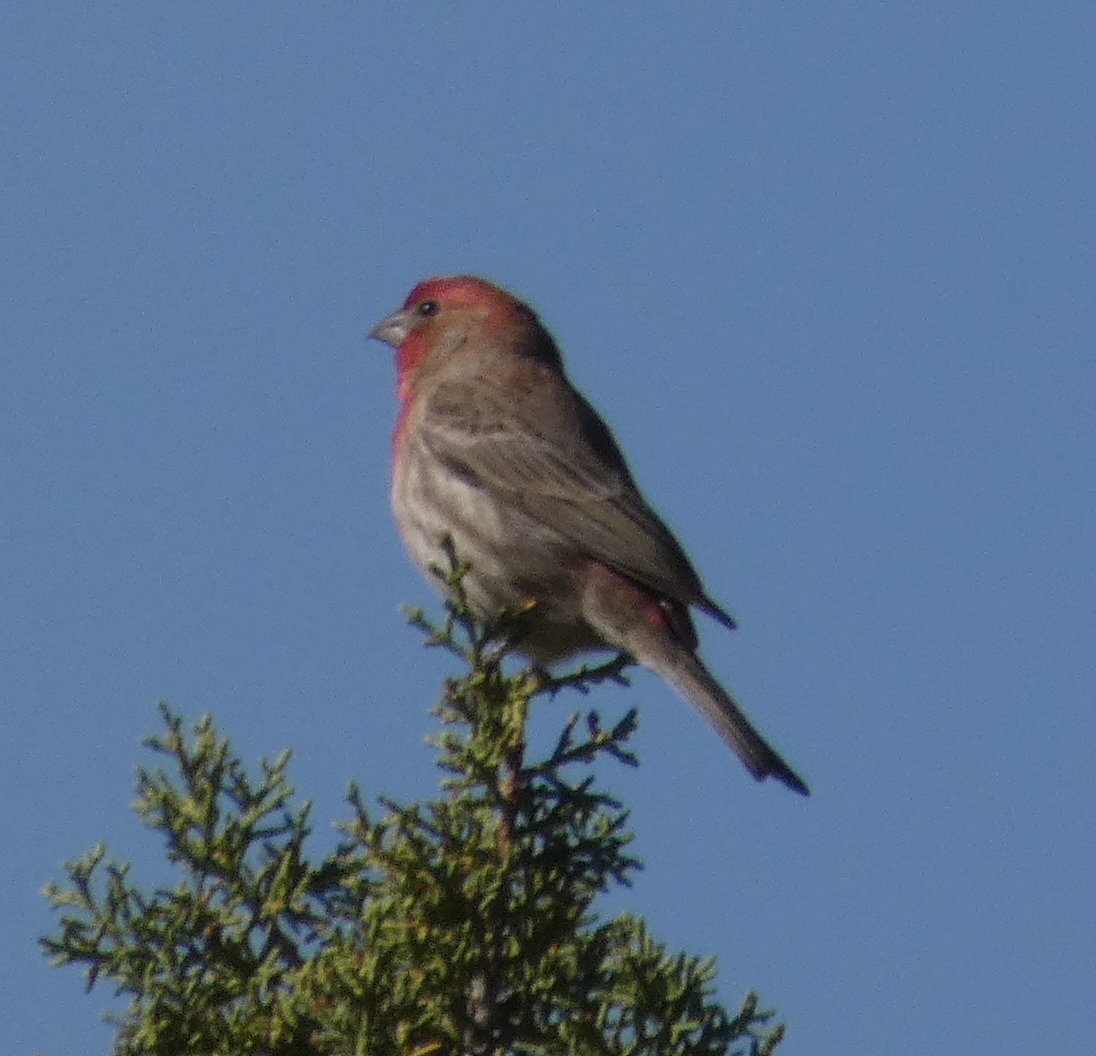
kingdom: Animalia
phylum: Chordata
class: Aves
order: Passeriformes
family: Fringillidae
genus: Haemorhous
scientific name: Haemorhous mexicanus
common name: House finch
